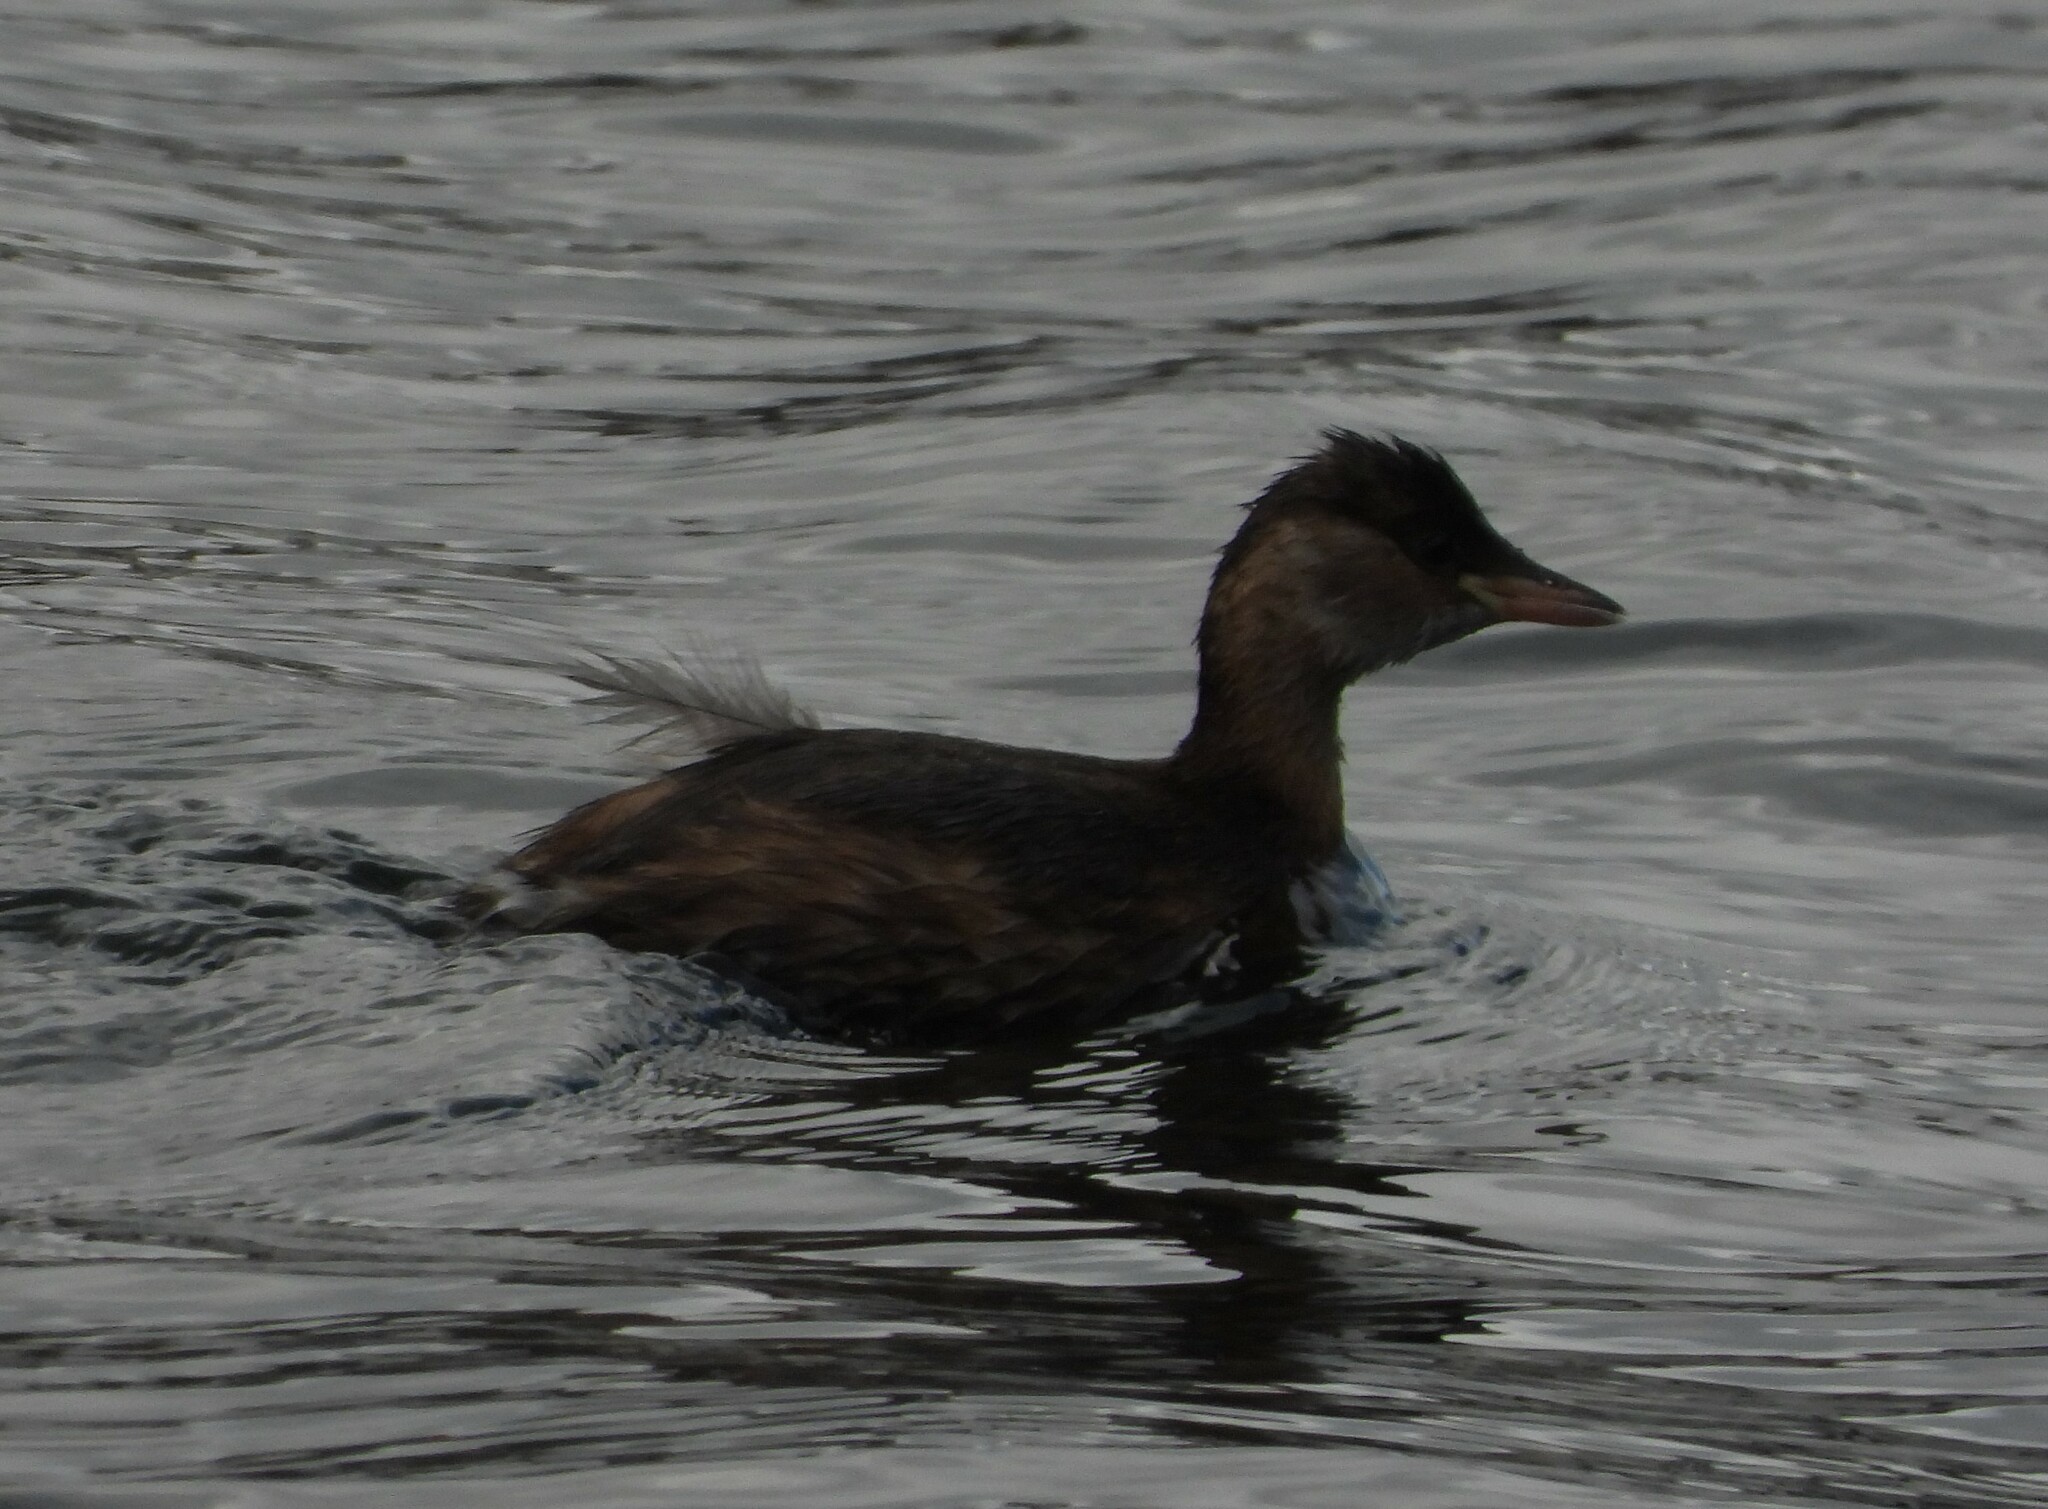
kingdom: Animalia
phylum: Chordata
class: Aves
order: Podicipediformes
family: Podicipedidae
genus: Tachybaptus
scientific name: Tachybaptus ruficollis
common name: Little grebe
